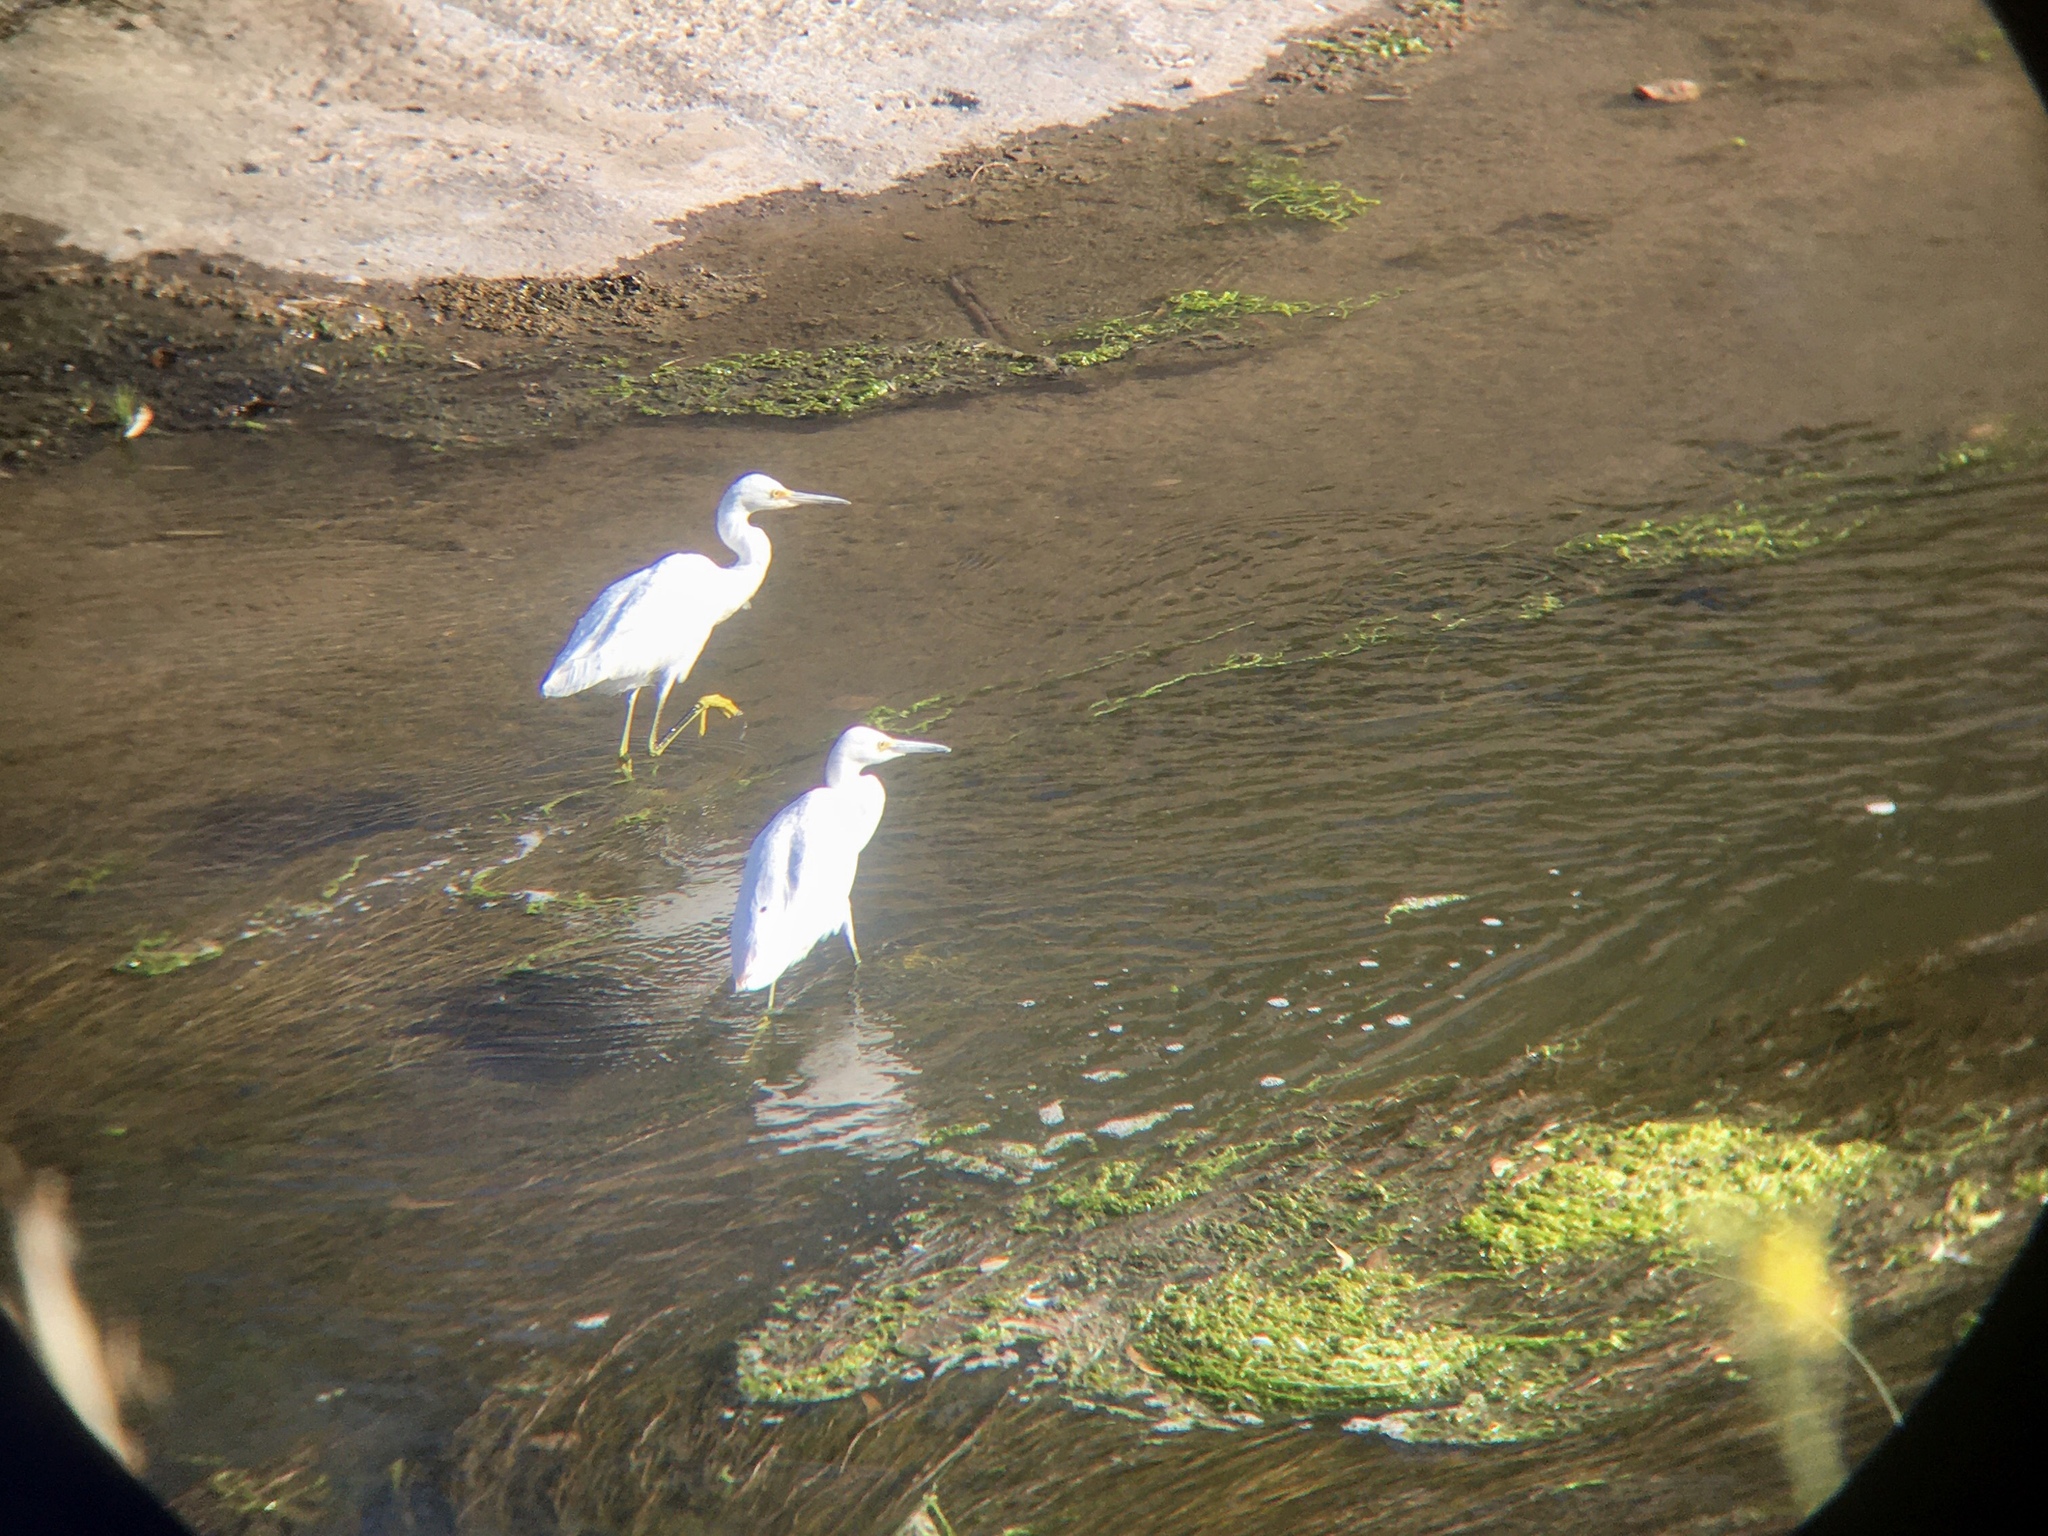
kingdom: Animalia
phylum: Chordata
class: Aves
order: Pelecaniformes
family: Ardeidae
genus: Egretta
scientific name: Egretta thula
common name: Snowy egret
